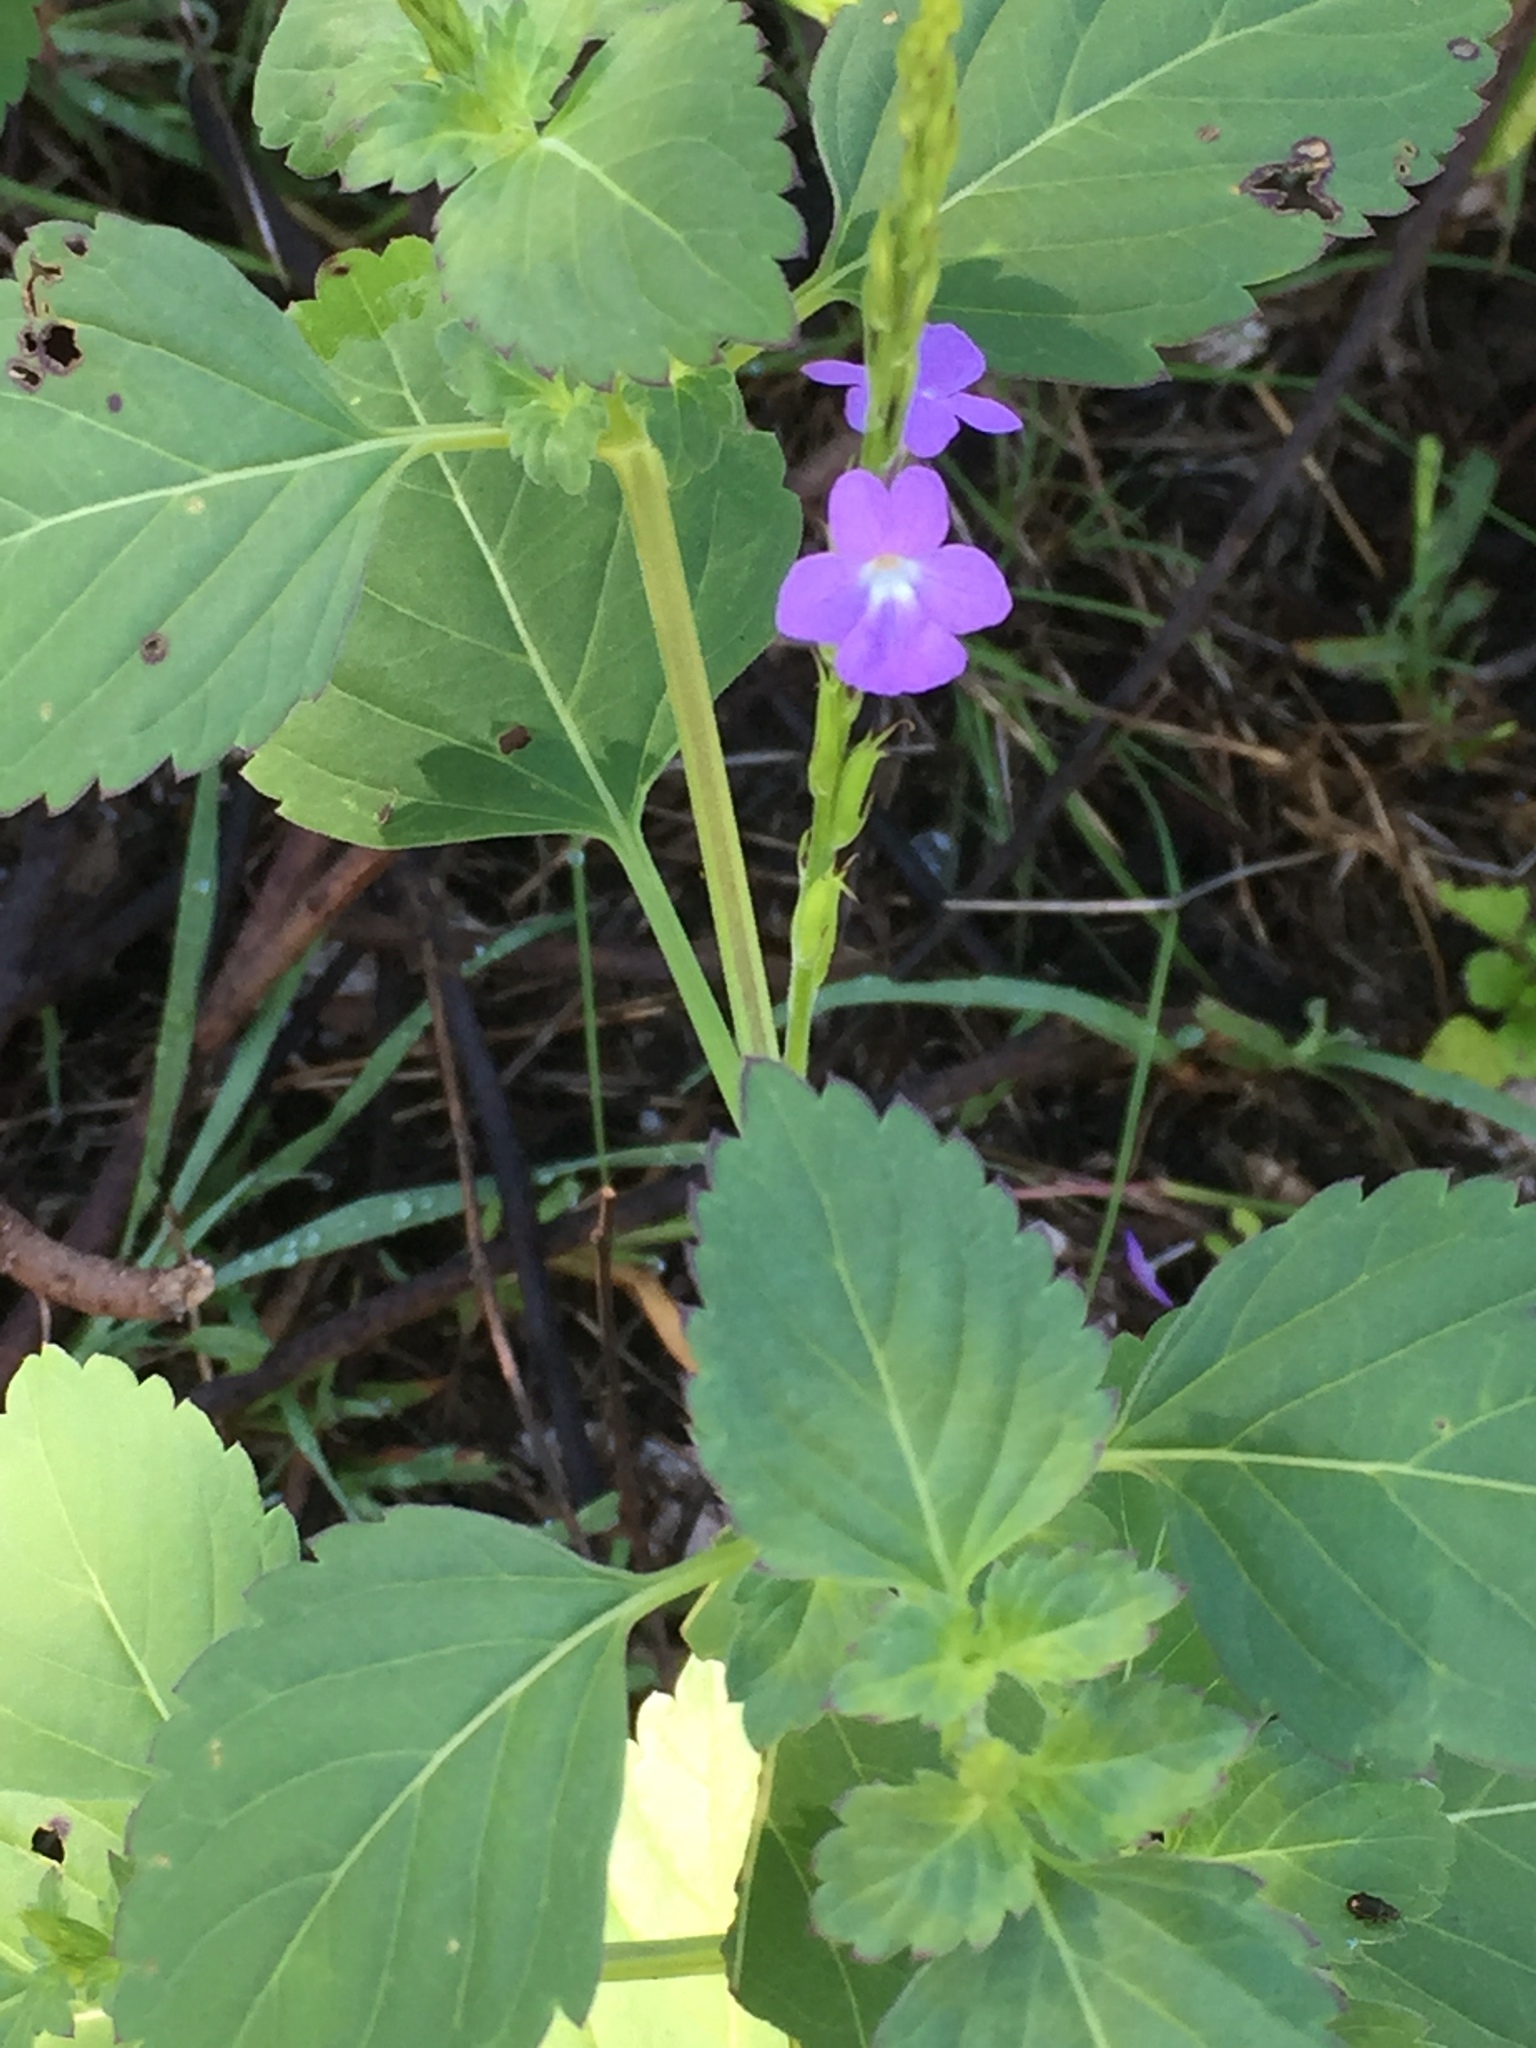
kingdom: Plantae
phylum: Tracheophyta
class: Magnoliopsida
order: Lamiales
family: Verbenaceae
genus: Stachytarpheta
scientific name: Stachytarpheta jamaicensis
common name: Light-blue snakeweed
